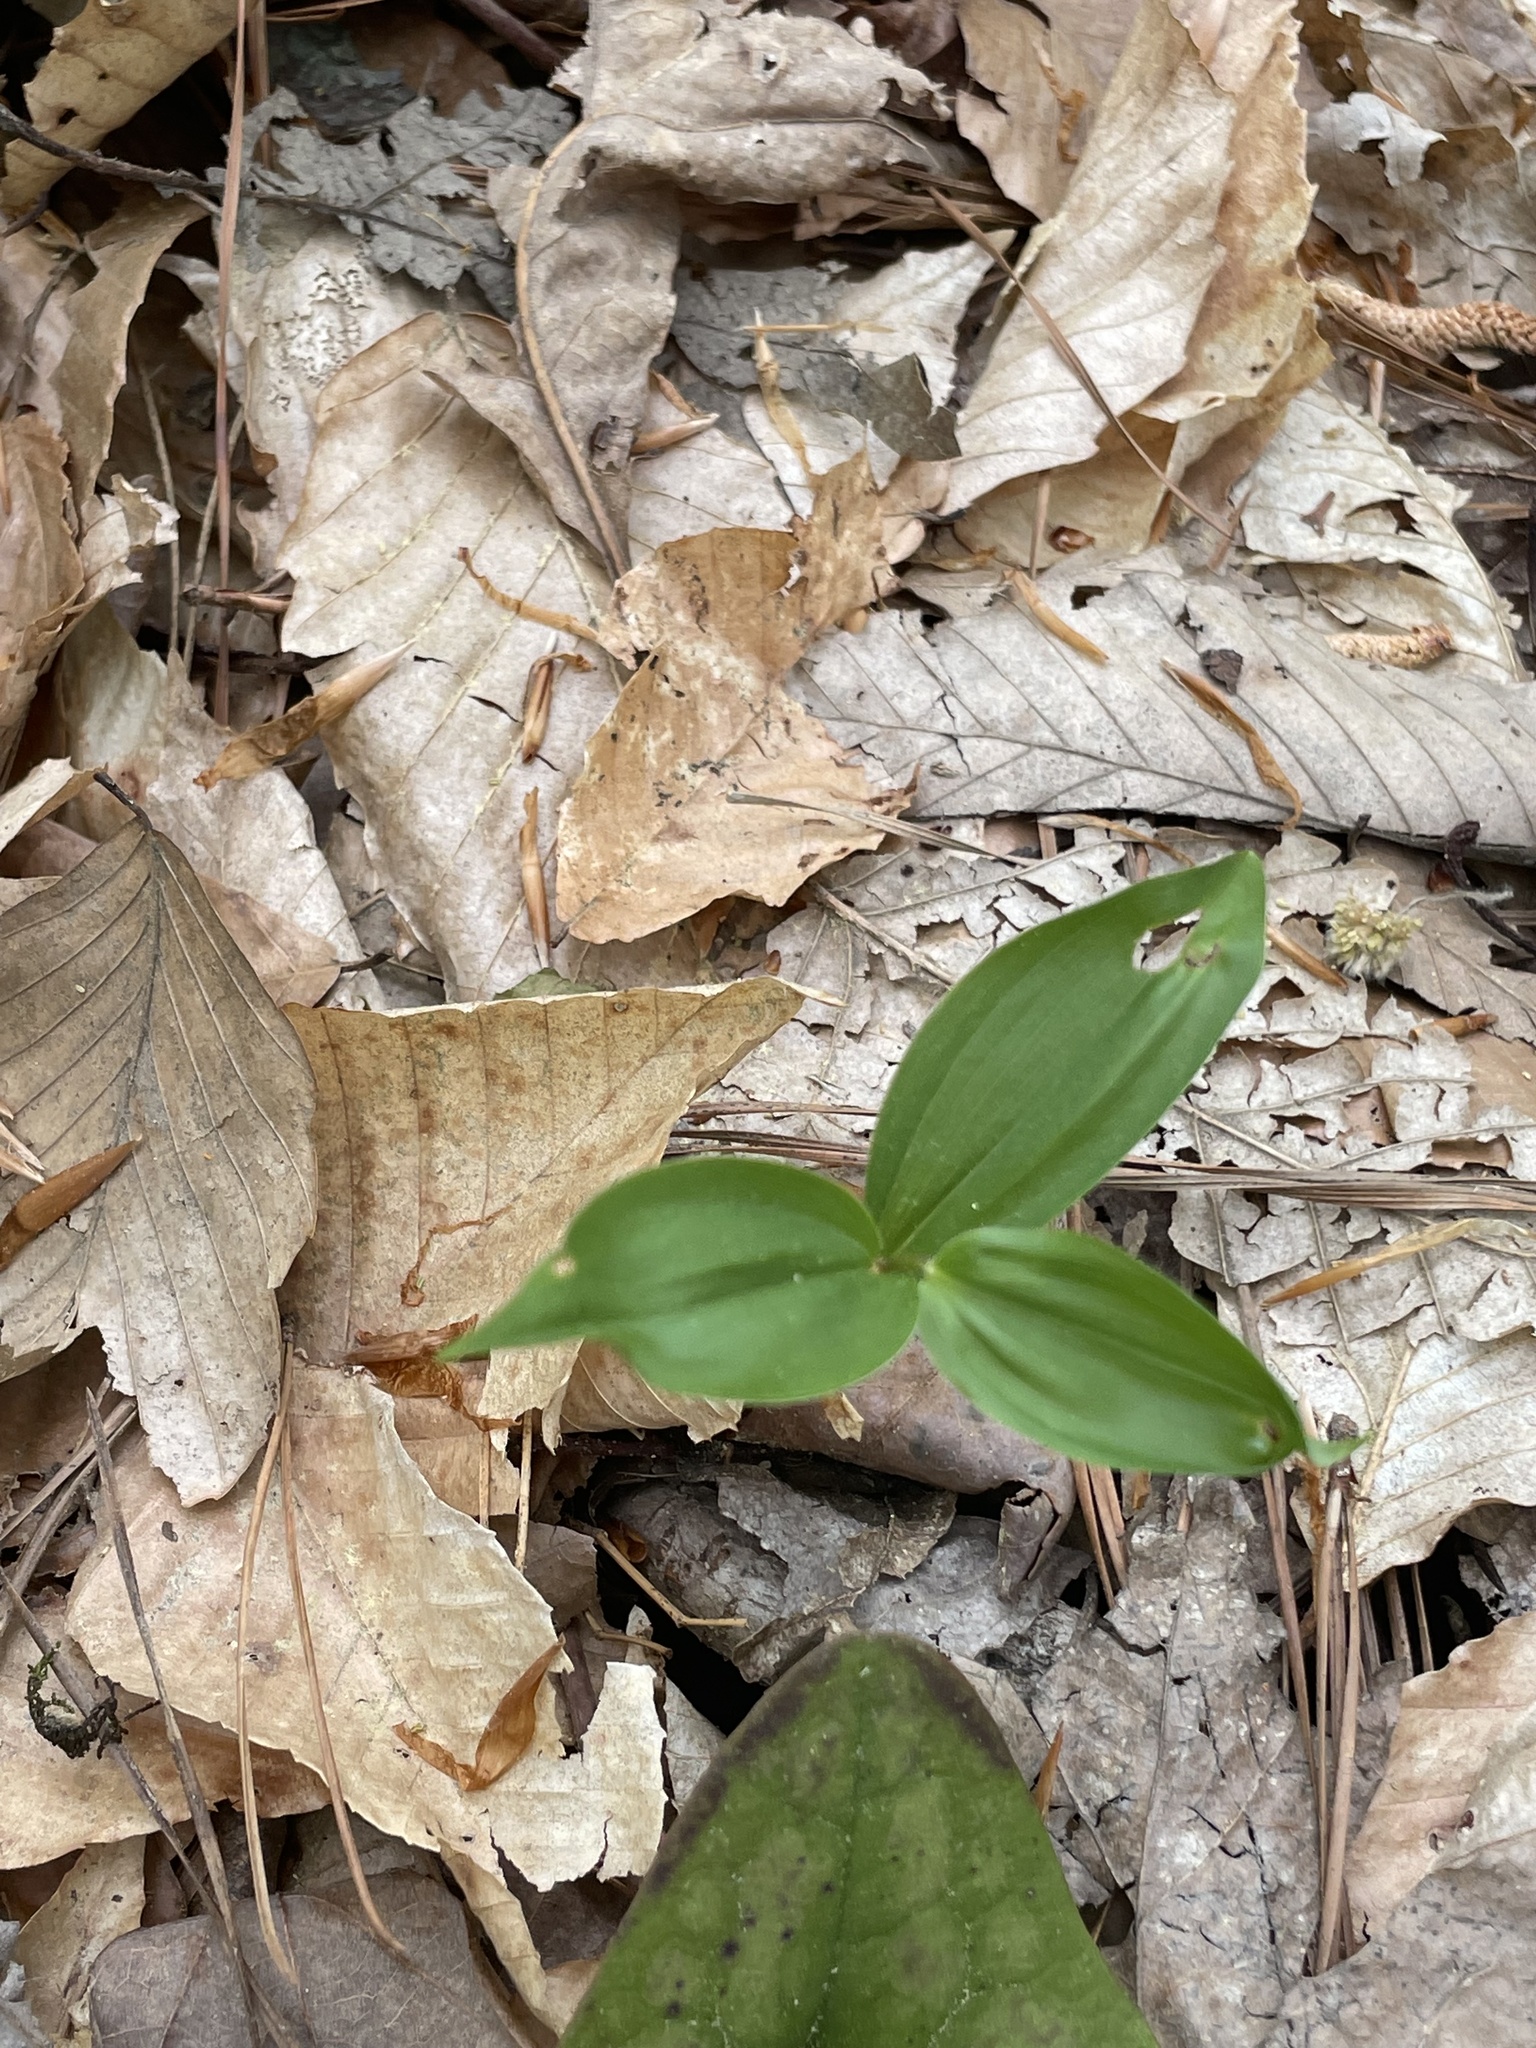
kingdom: Plantae
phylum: Tracheophyta
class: Liliopsida
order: Asparagales
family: Asparagaceae
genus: Maianthemum
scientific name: Maianthemum racemosum
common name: False spikenard
